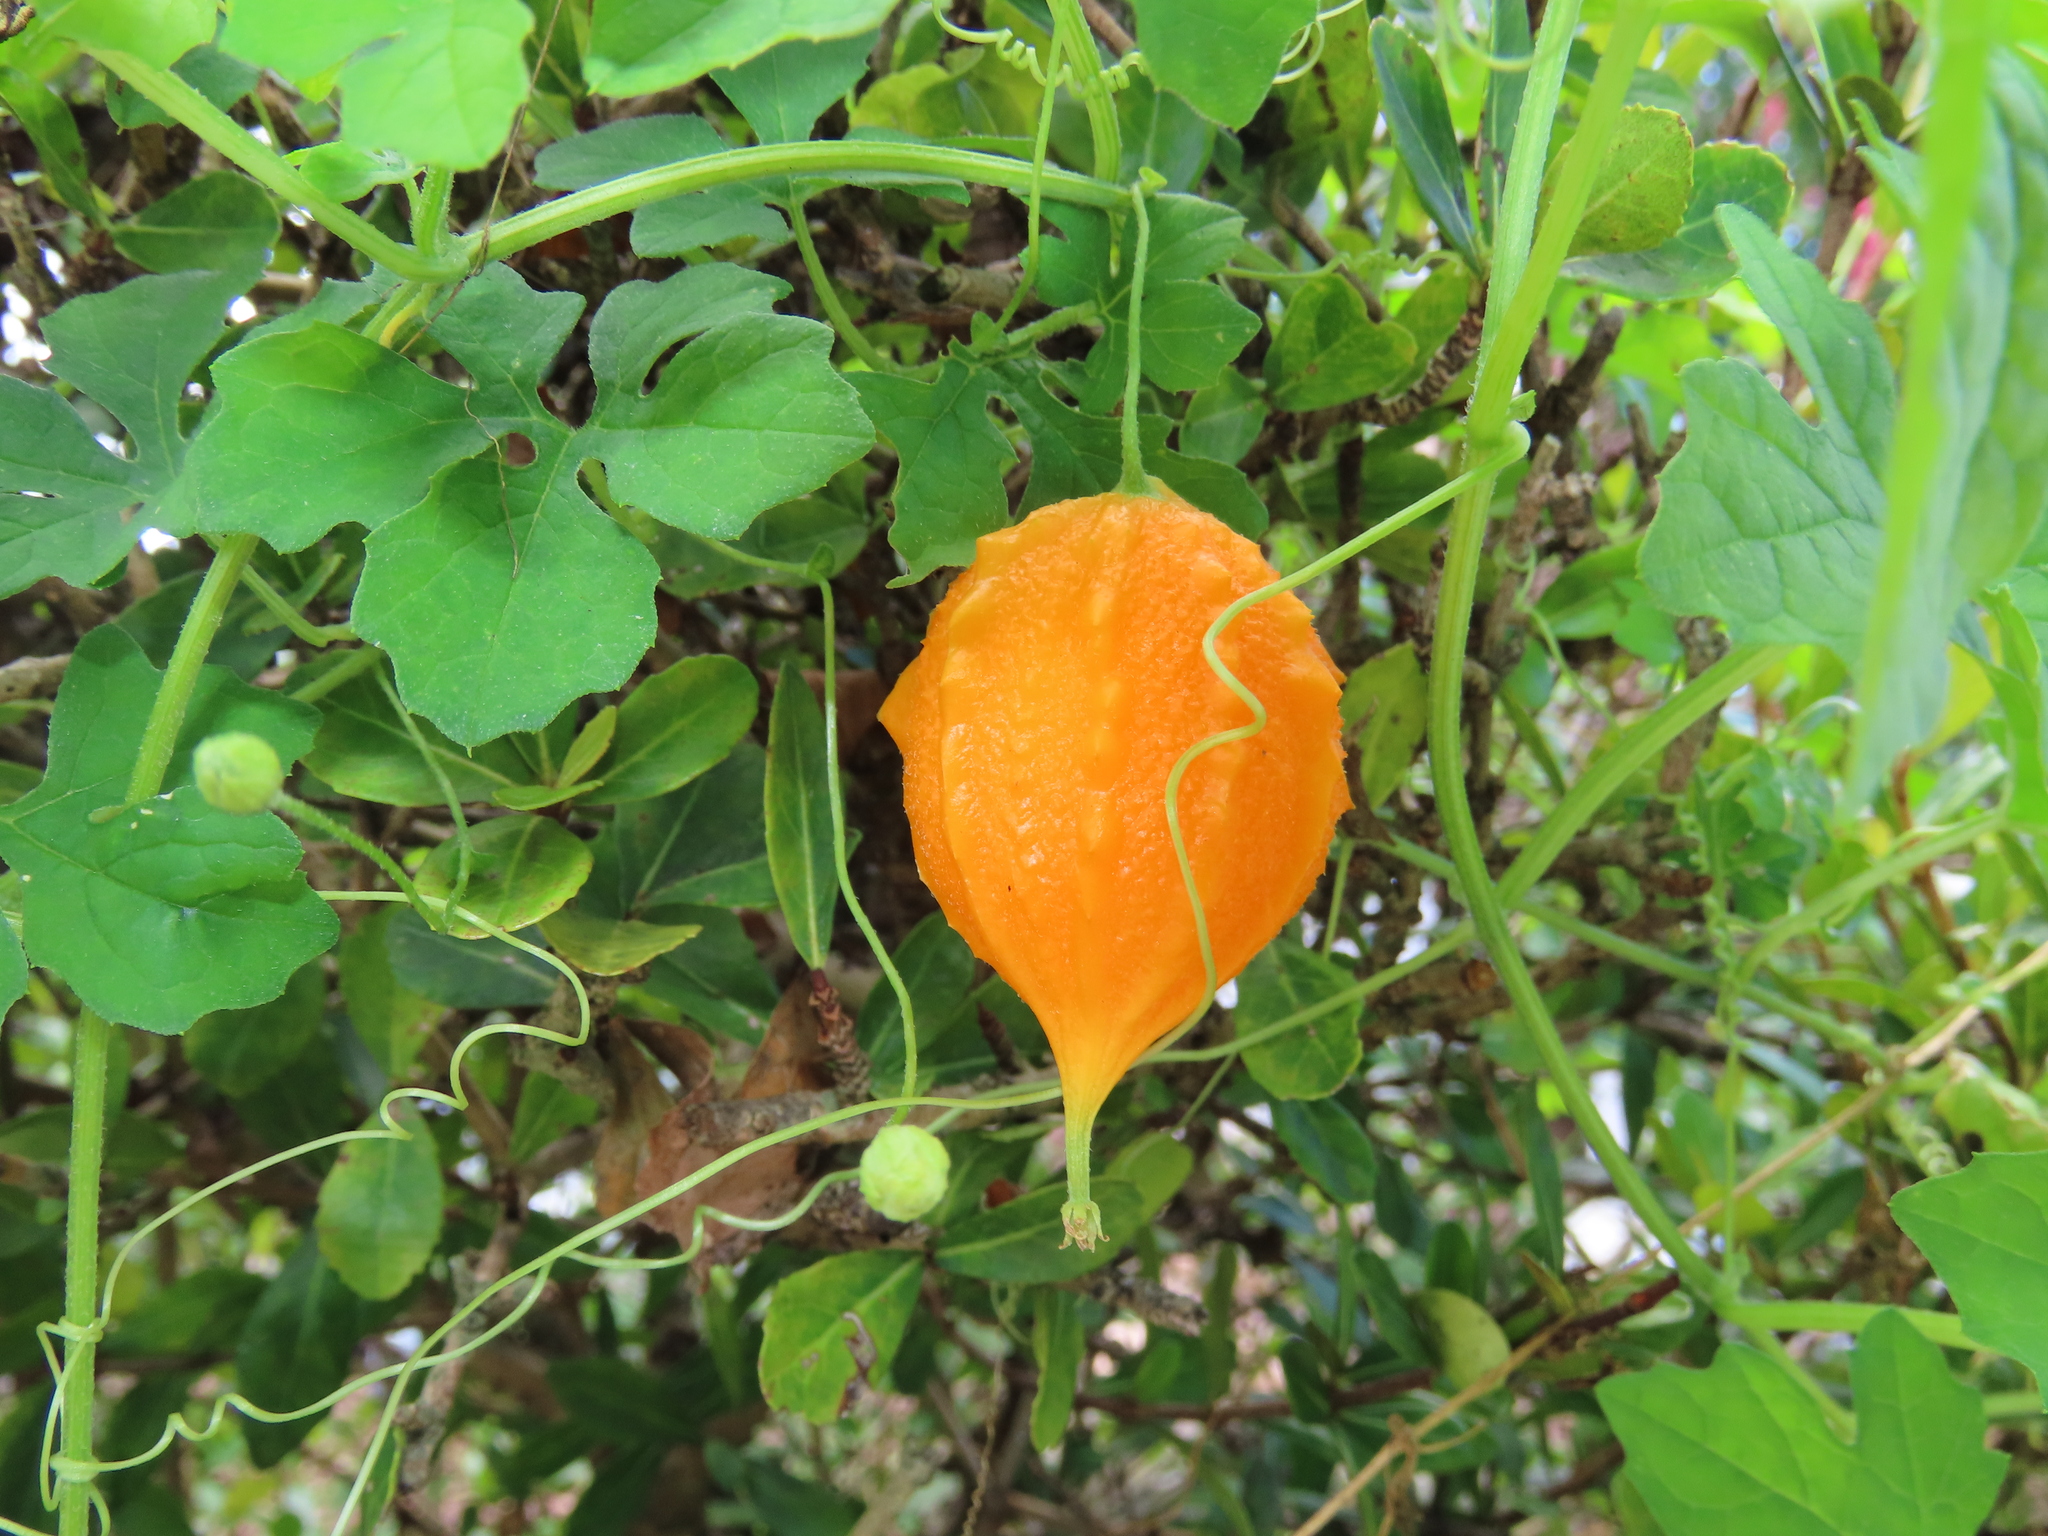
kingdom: Plantae
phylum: Tracheophyta
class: Magnoliopsida
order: Cucurbitales
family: Cucurbitaceae
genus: Momordica
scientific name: Momordica charantia
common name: Balsampear
